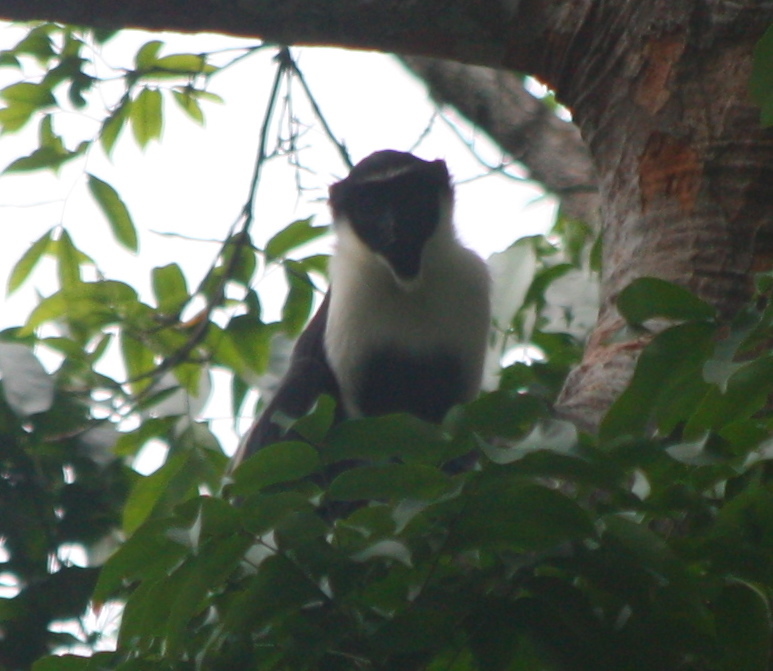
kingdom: Animalia
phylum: Chordata
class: Mammalia
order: Primates
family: Cercopithecidae
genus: Cercopithecus
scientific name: Cercopithecus diana
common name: Diana monkey
